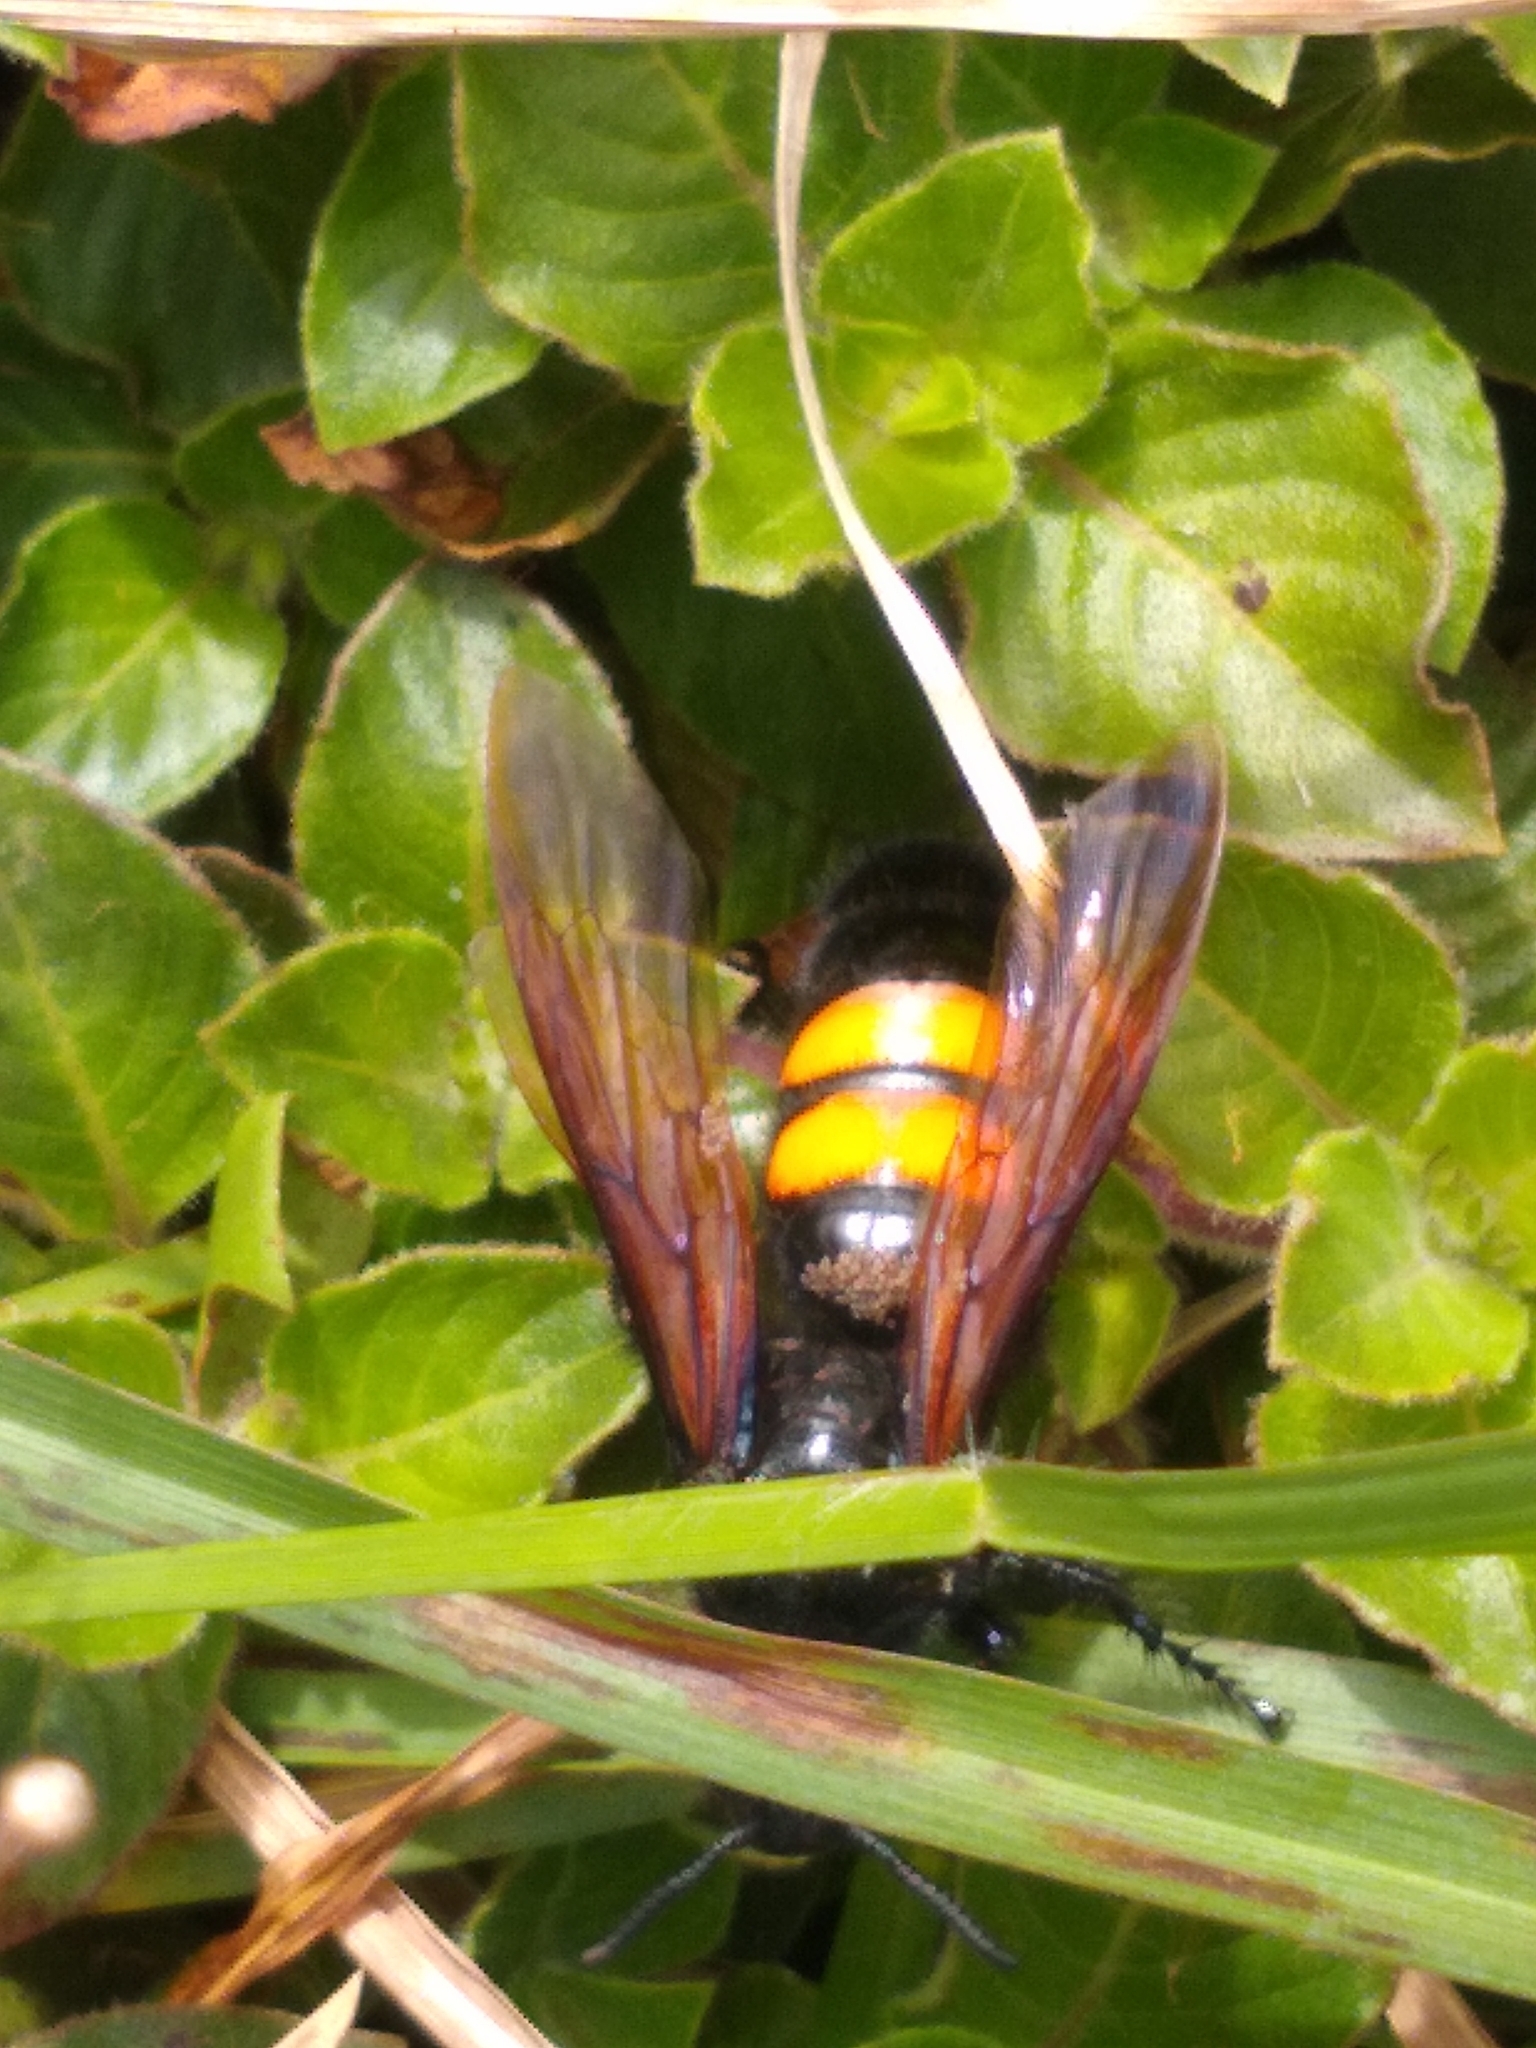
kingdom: Animalia
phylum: Arthropoda
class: Insecta
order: Hymenoptera
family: Scoliidae
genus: Pygodasis
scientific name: Pygodasis ephippium
